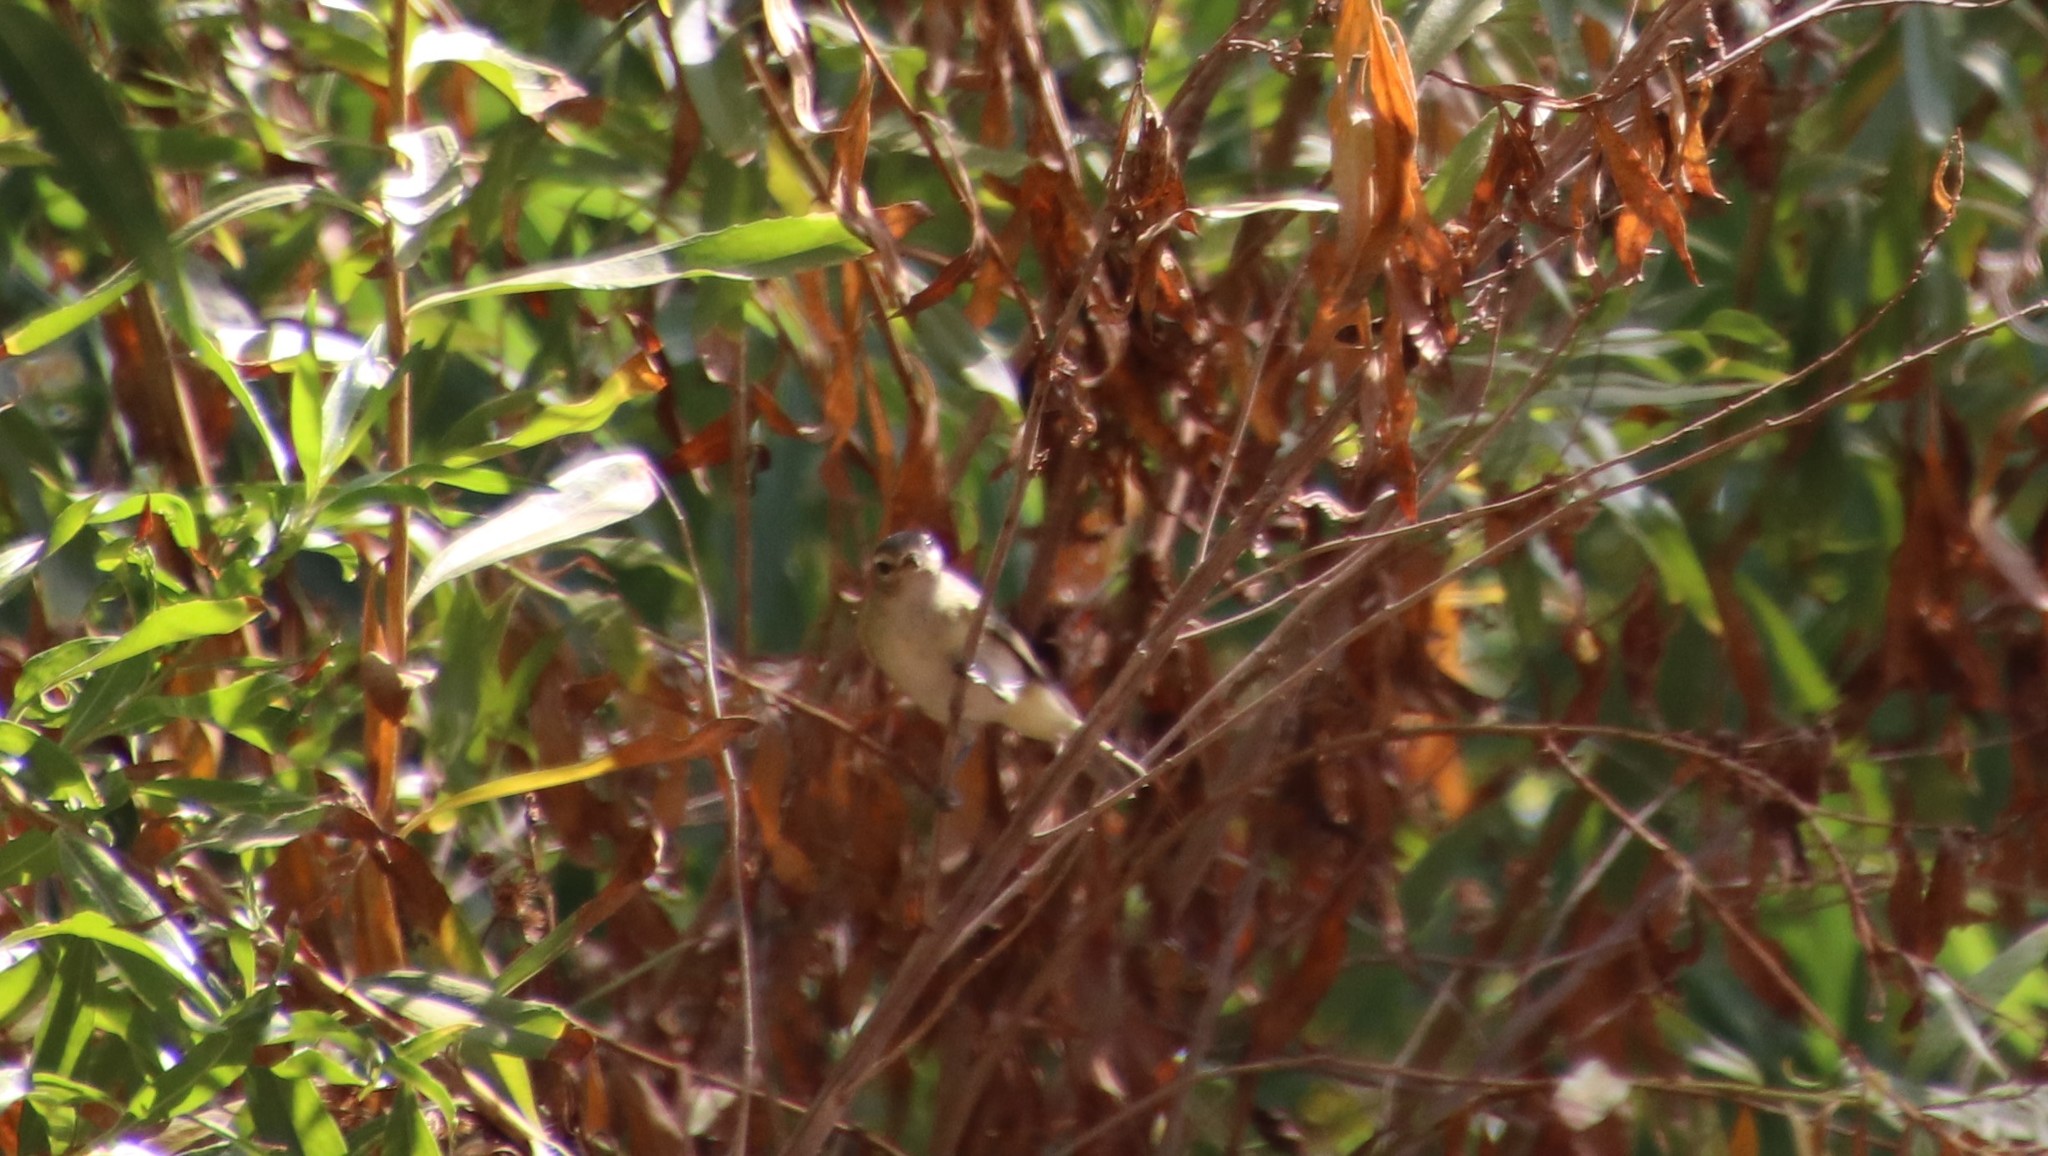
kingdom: Animalia
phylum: Chordata
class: Aves
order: Passeriformes
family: Vireonidae
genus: Vireo
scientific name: Vireo gilvus
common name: Warbling vireo
